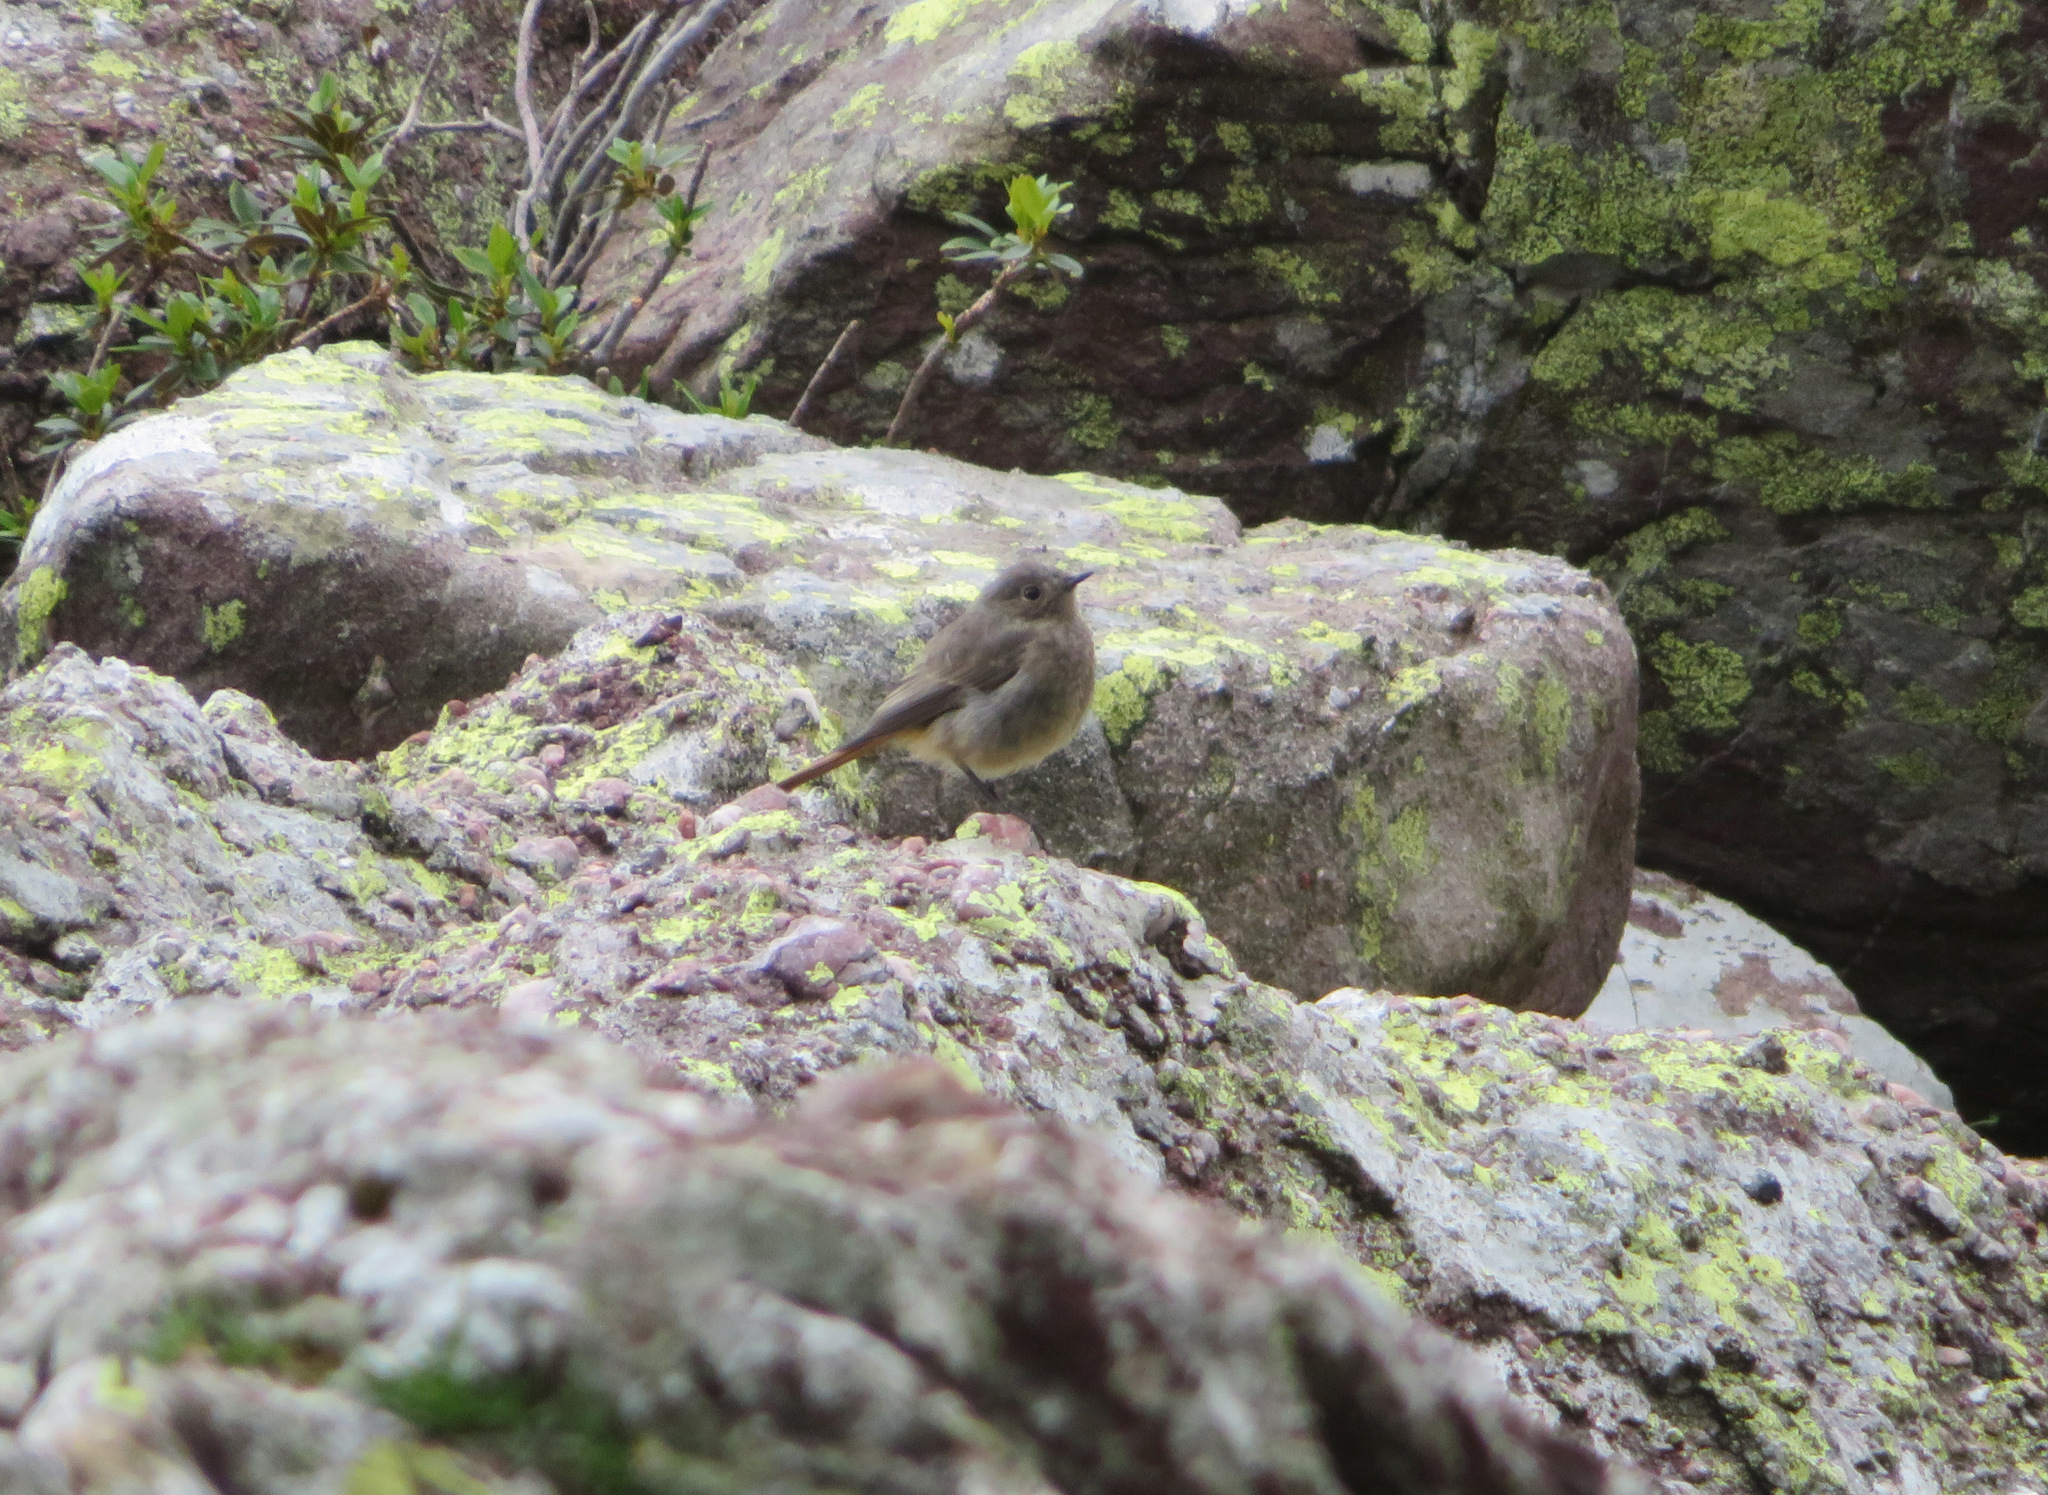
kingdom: Animalia
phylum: Chordata
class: Aves
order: Passeriformes
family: Muscicapidae
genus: Phoenicurus
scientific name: Phoenicurus ochruros
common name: Black redstart
